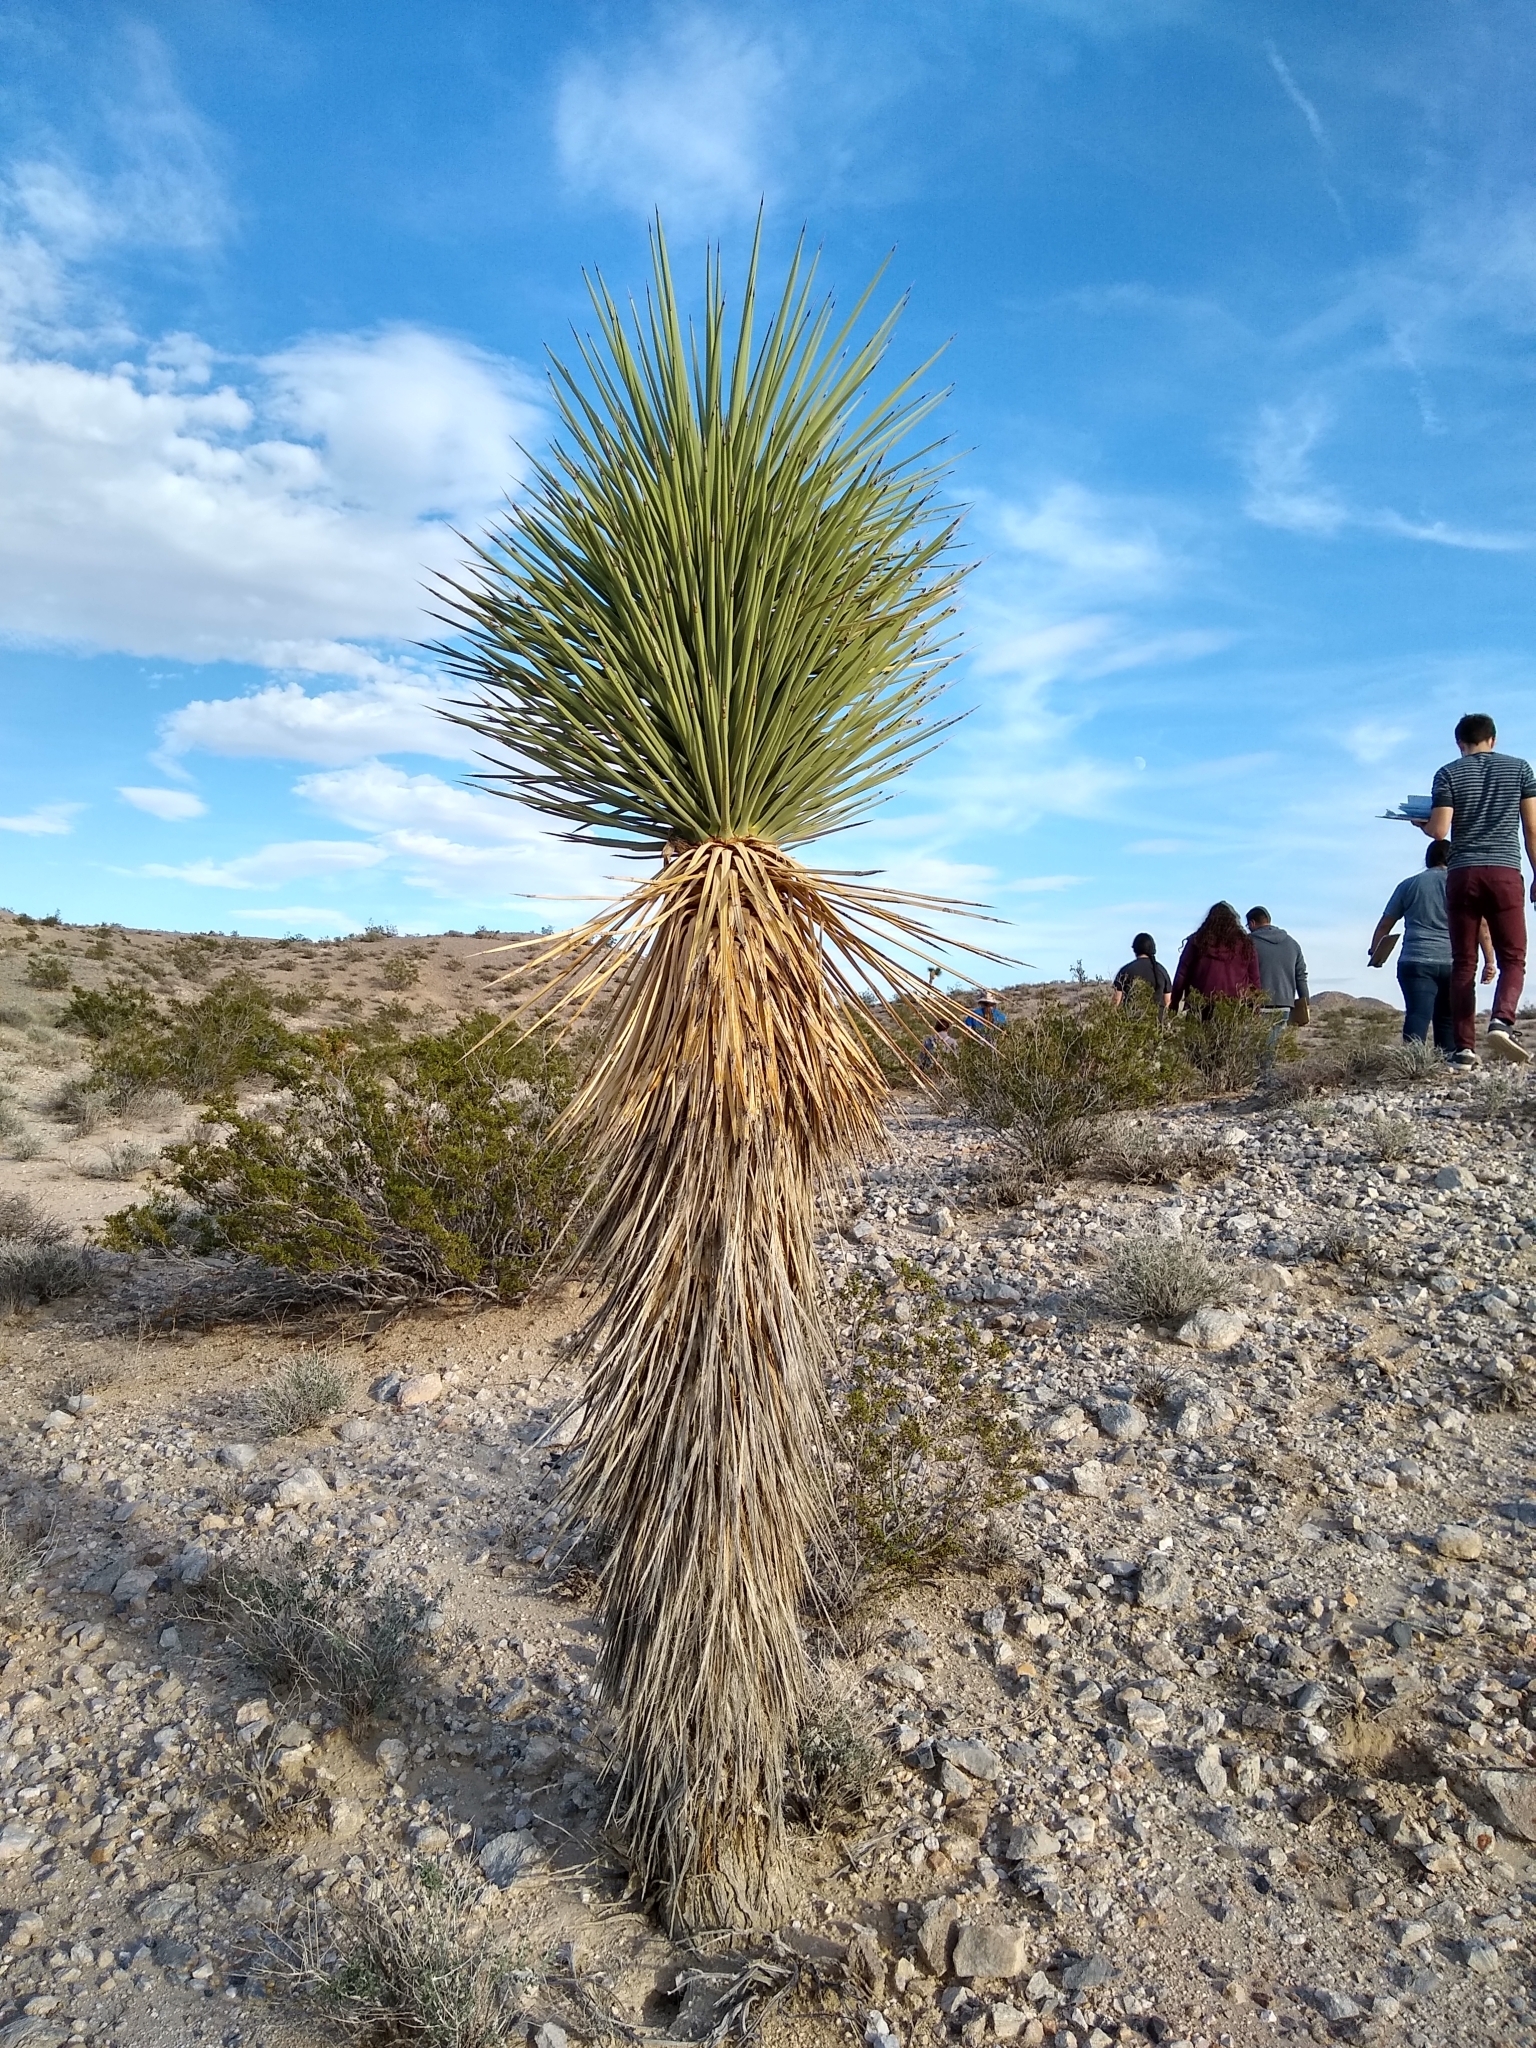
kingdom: Plantae
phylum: Tracheophyta
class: Liliopsida
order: Asparagales
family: Asparagaceae
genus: Yucca
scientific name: Yucca brevifolia
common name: Joshua tree
